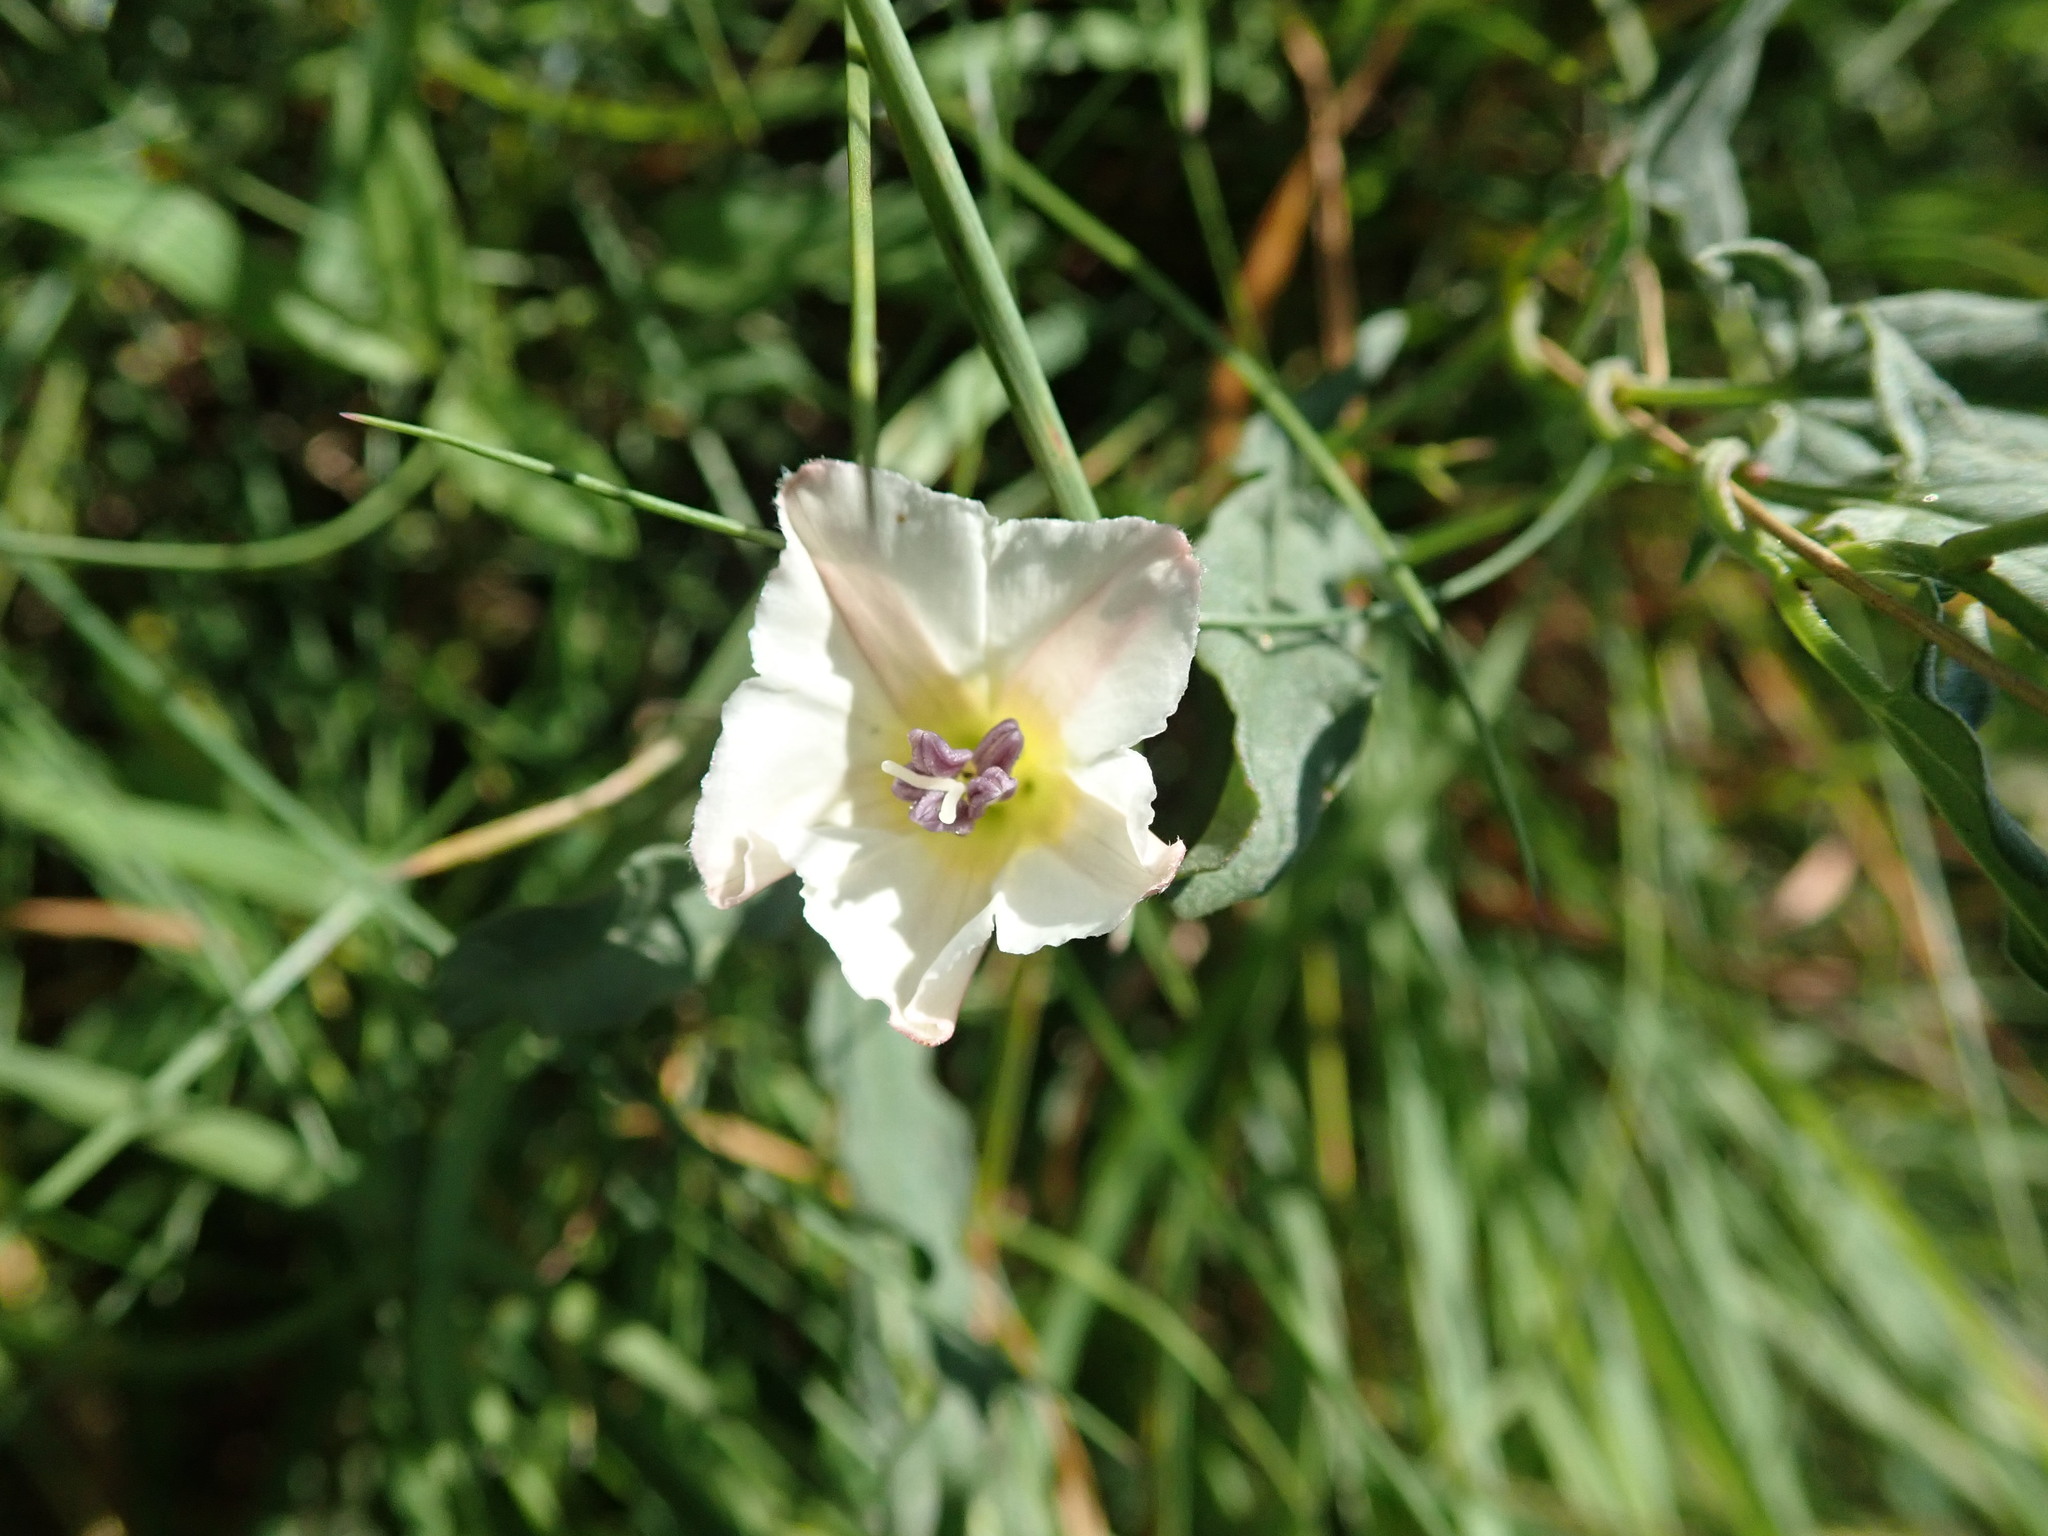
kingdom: Plantae
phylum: Tracheophyta
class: Magnoliopsida
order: Solanales
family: Convolvulaceae
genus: Convolvulus
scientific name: Convolvulus arvensis
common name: Field bindweed
